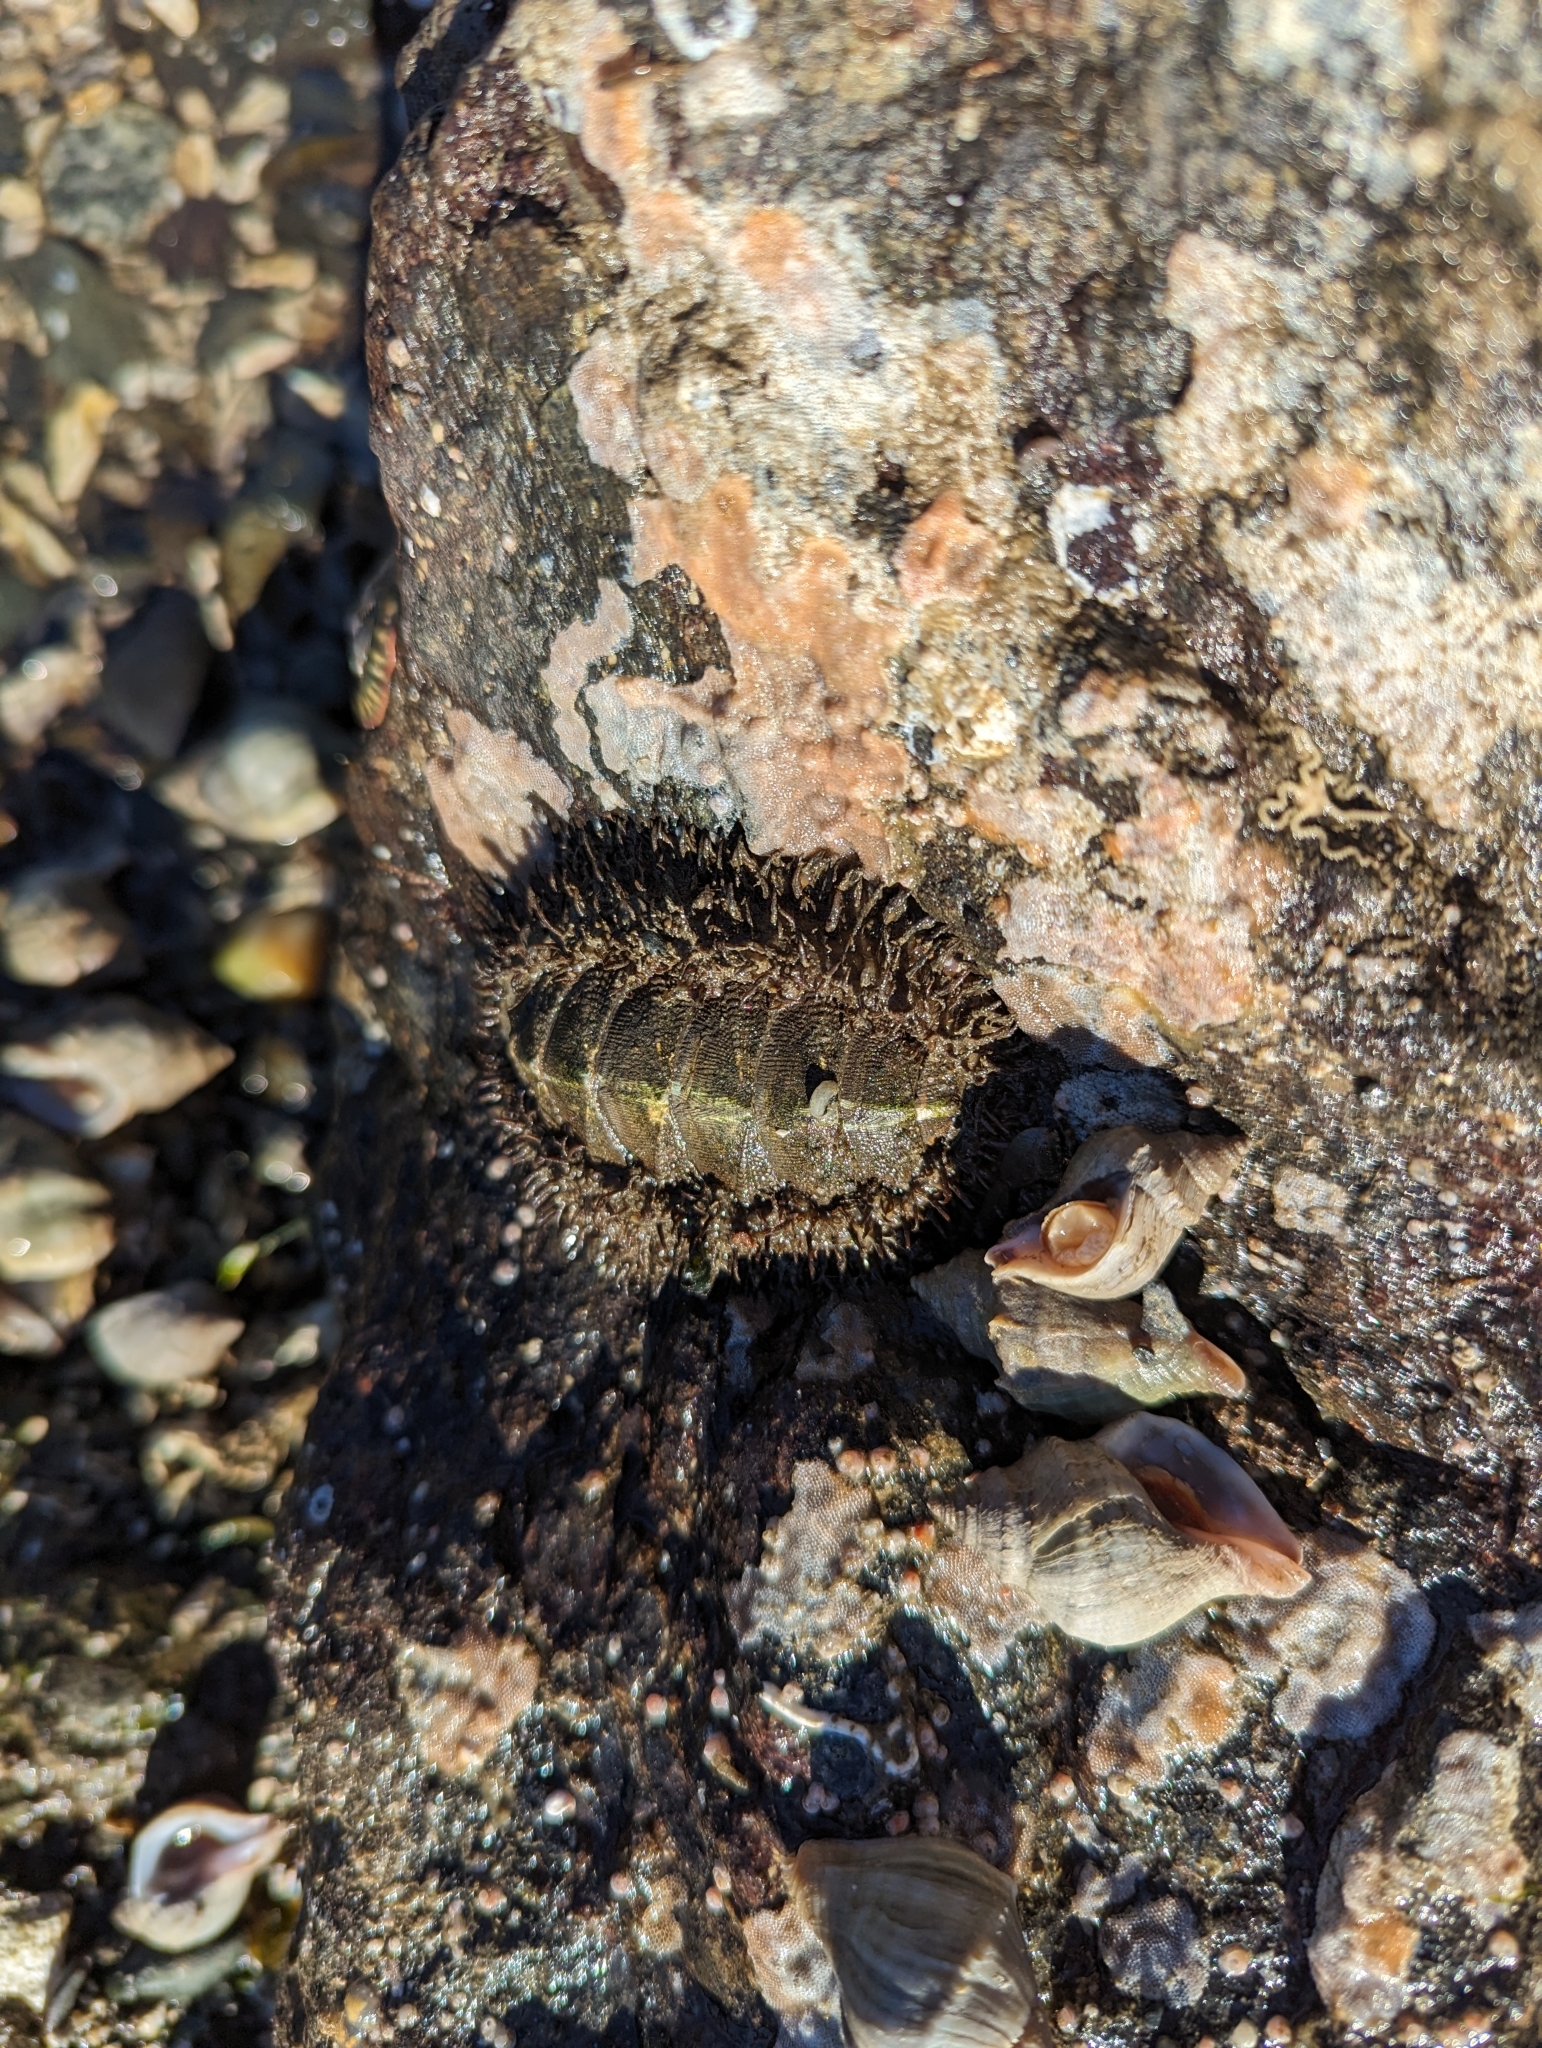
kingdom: Animalia
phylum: Mollusca
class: Polyplacophora
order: Chitonida
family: Mopaliidae
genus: Mopalia
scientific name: Mopalia muscosa
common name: Mossy chiton
